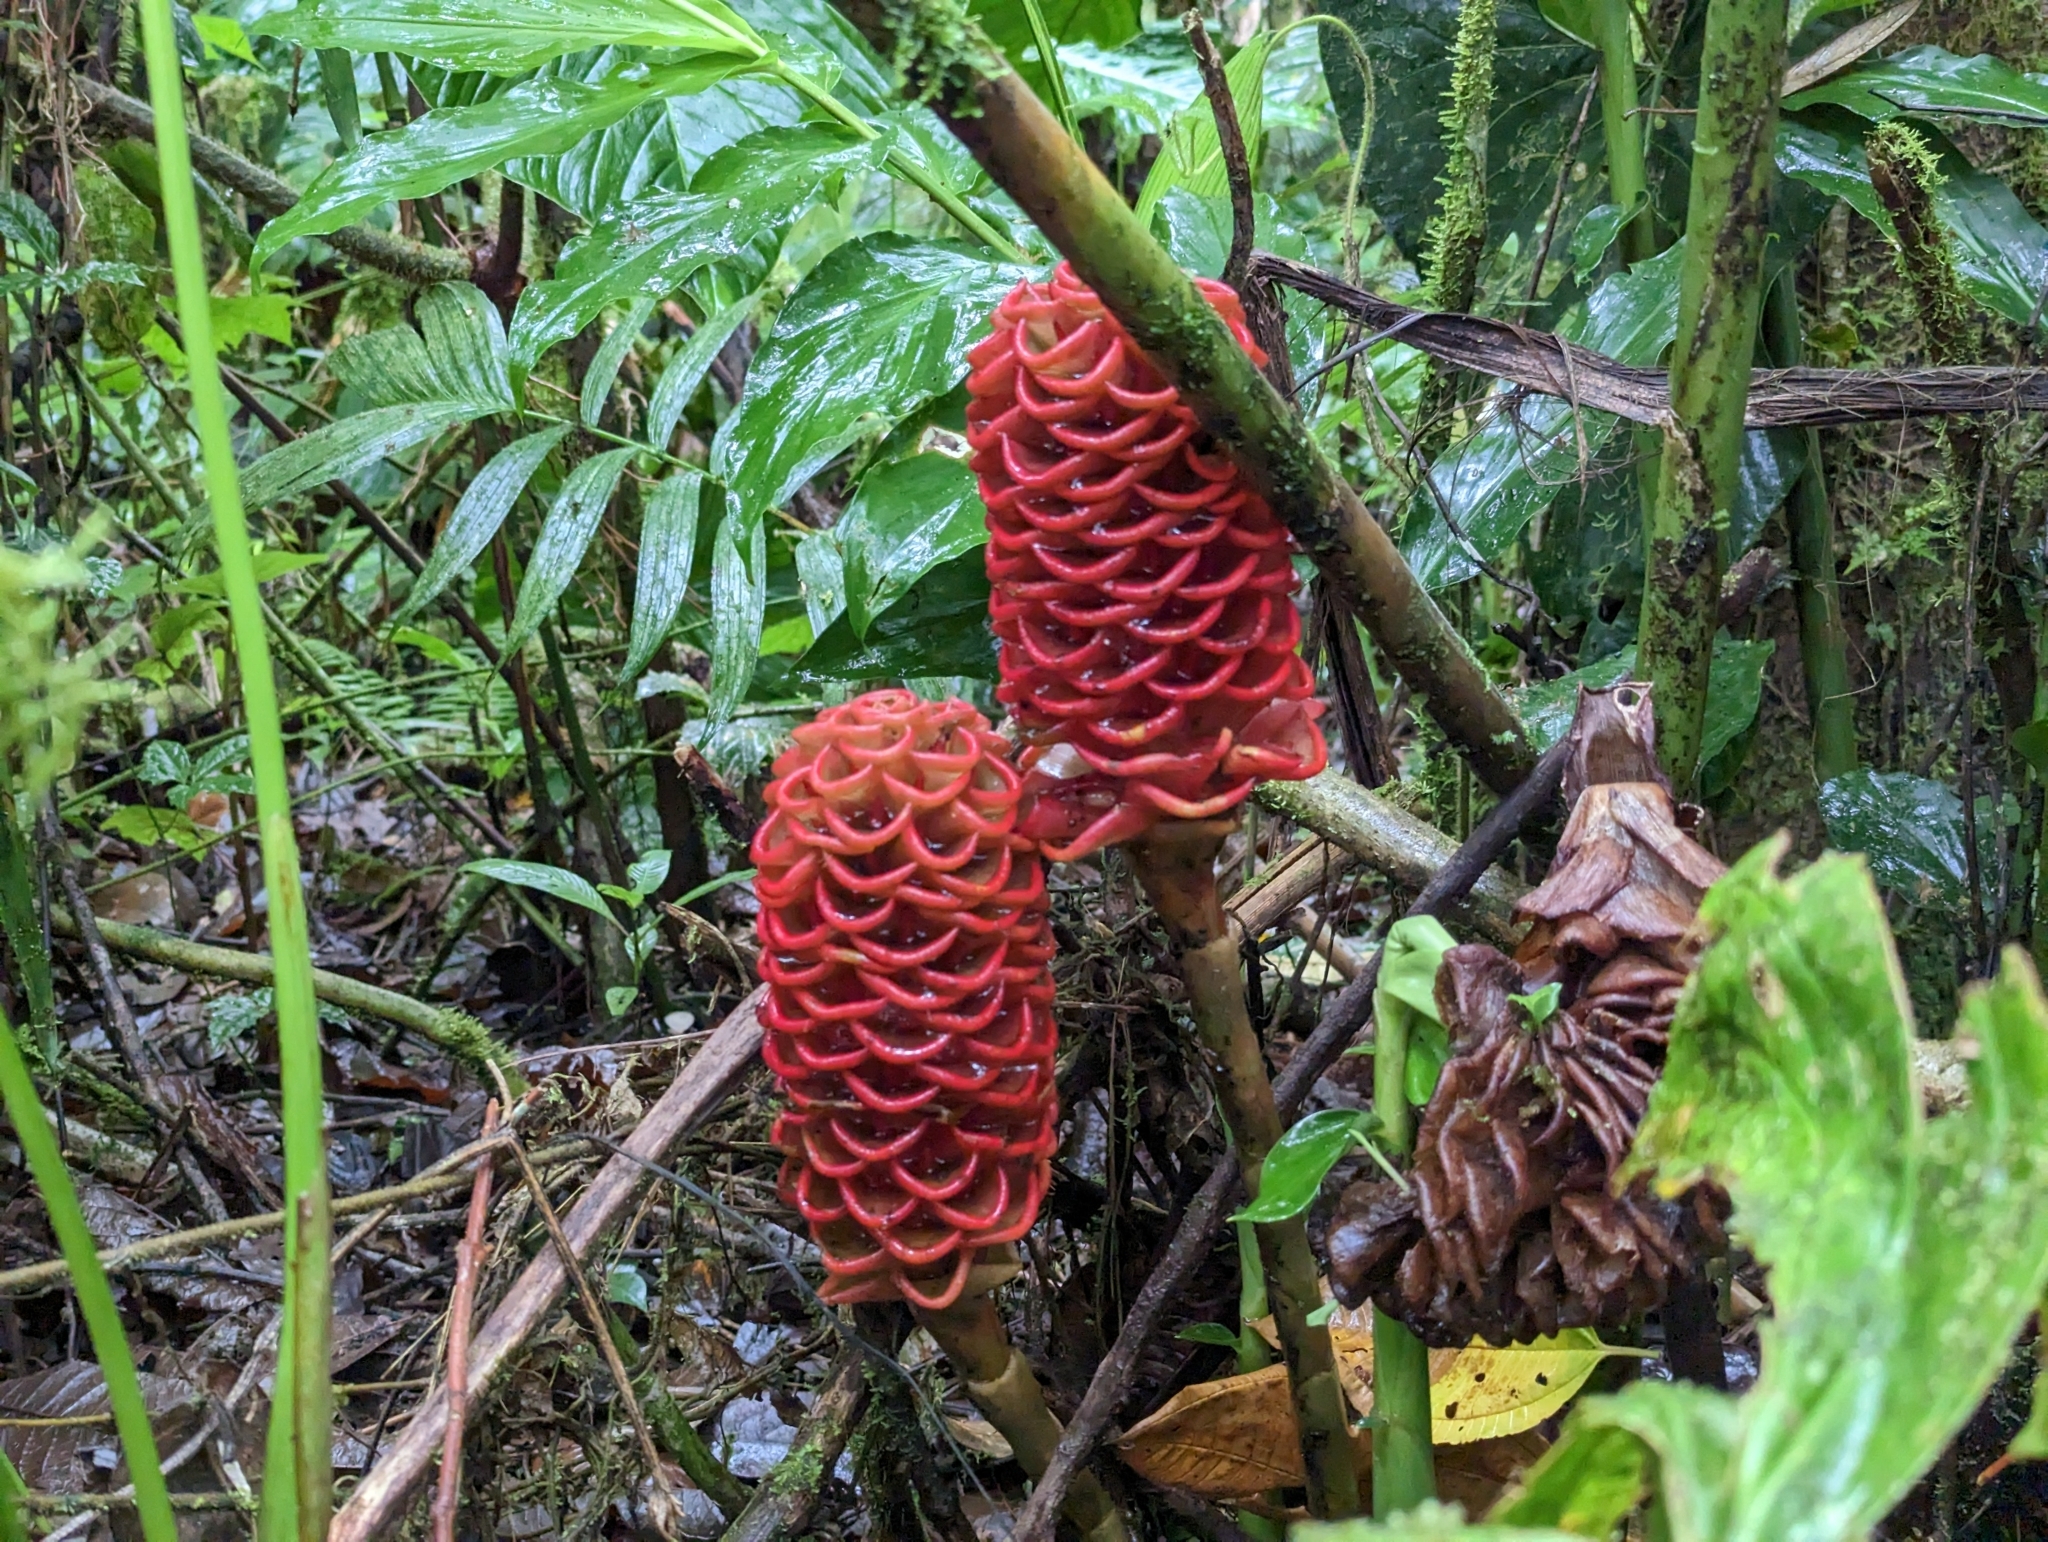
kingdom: Plantae
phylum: Tracheophyta
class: Liliopsida
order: Zingiberales
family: Zingiberaceae
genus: Zingiber
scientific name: Zingiber spectabile
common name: Beehive ginger
